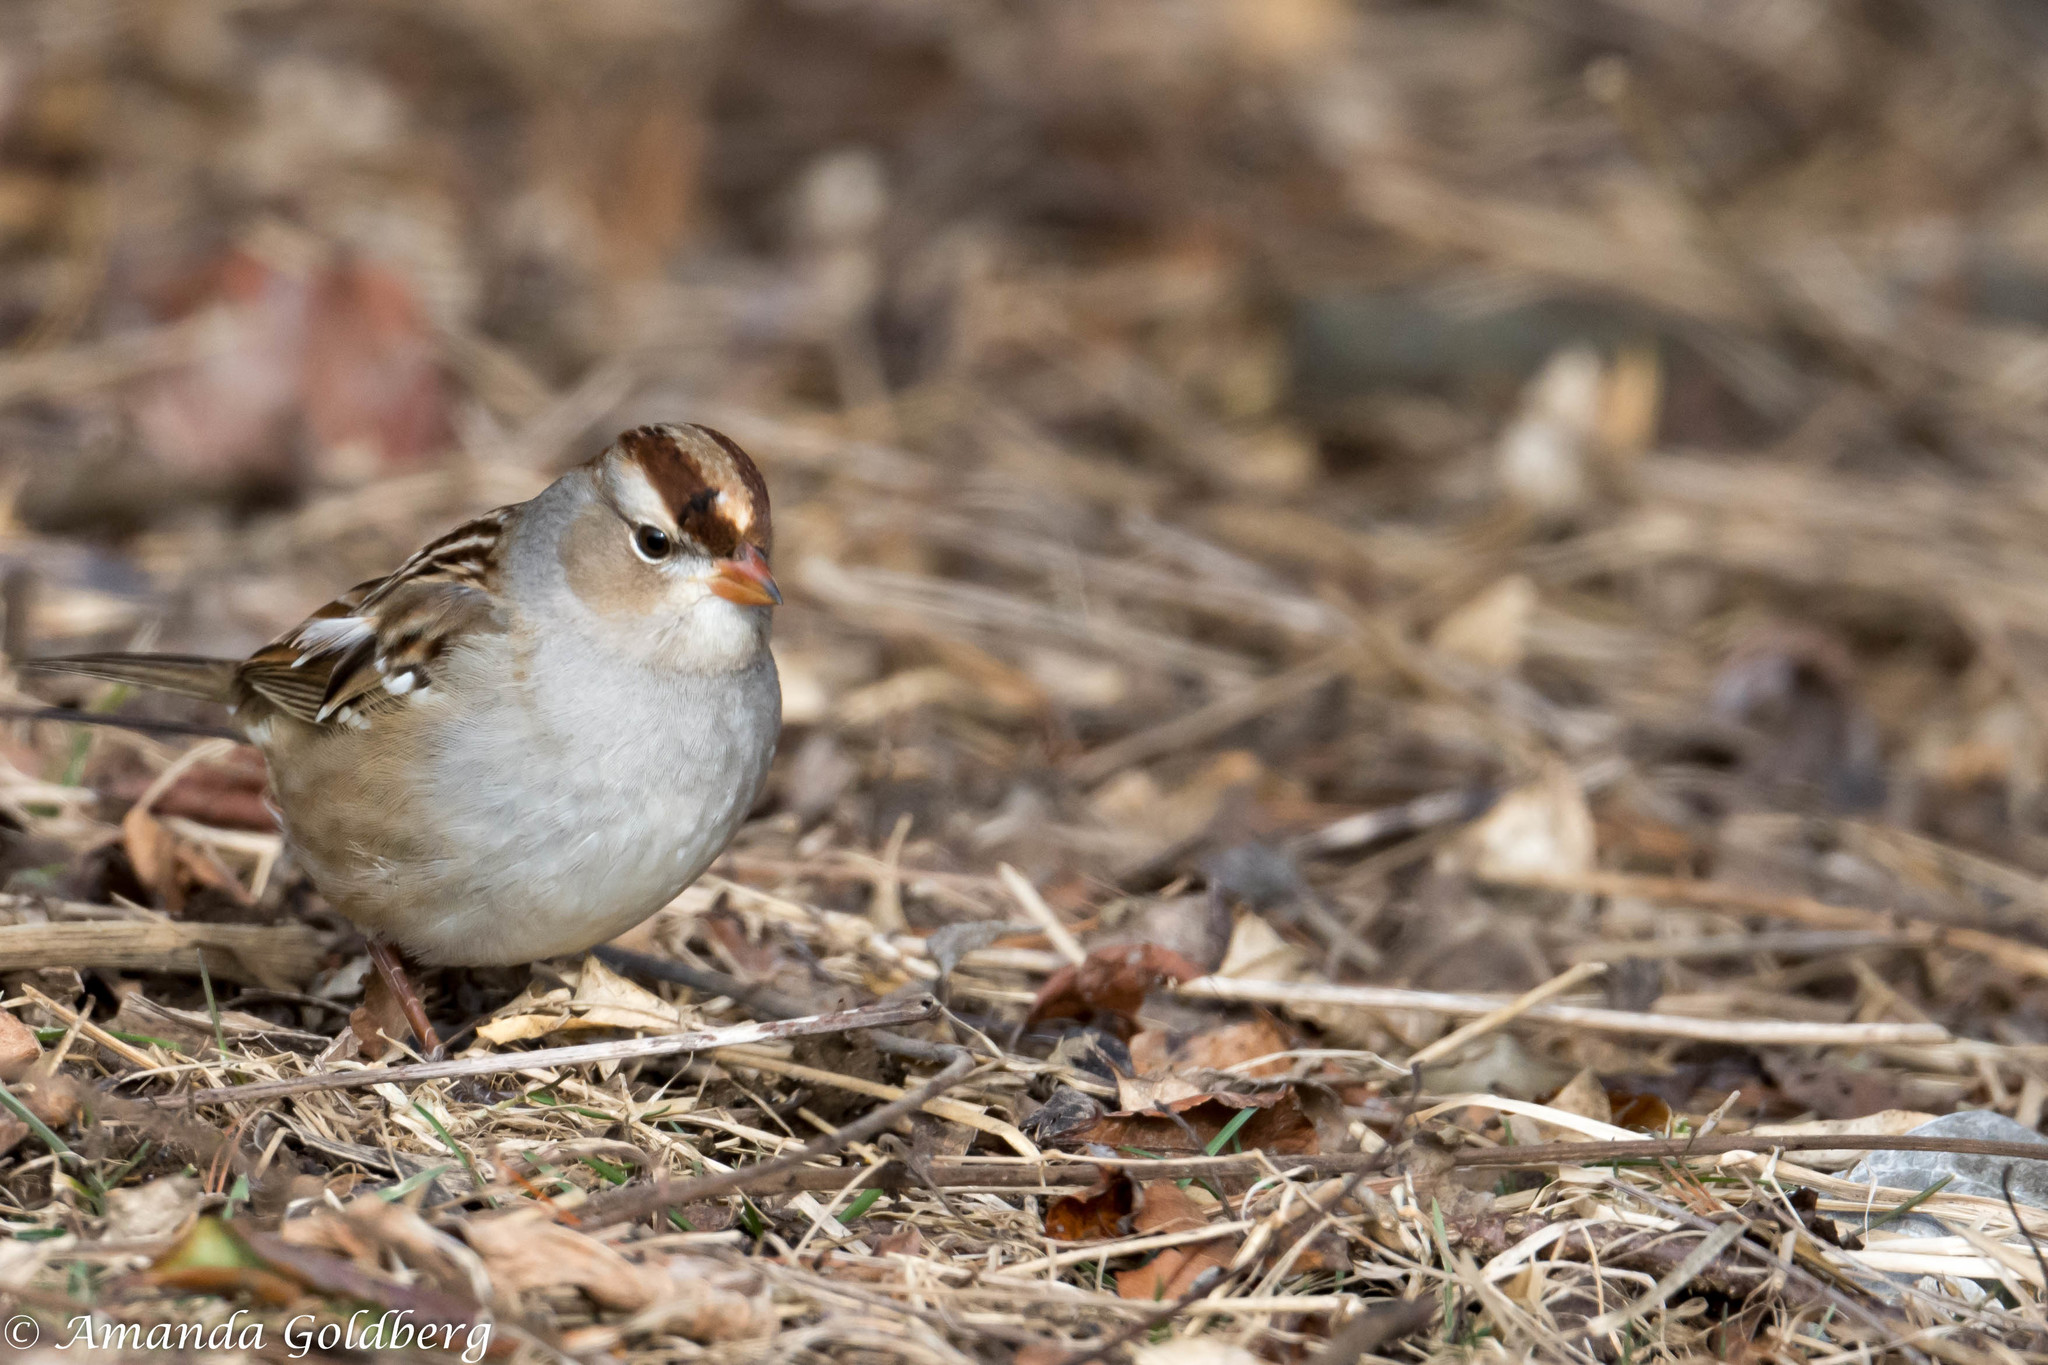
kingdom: Animalia
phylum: Chordata
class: Aves
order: Passeriformes
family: Passerellidae
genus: Zonotrichia
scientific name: Zonotrichia leucophrys
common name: White-crowned sparrow
